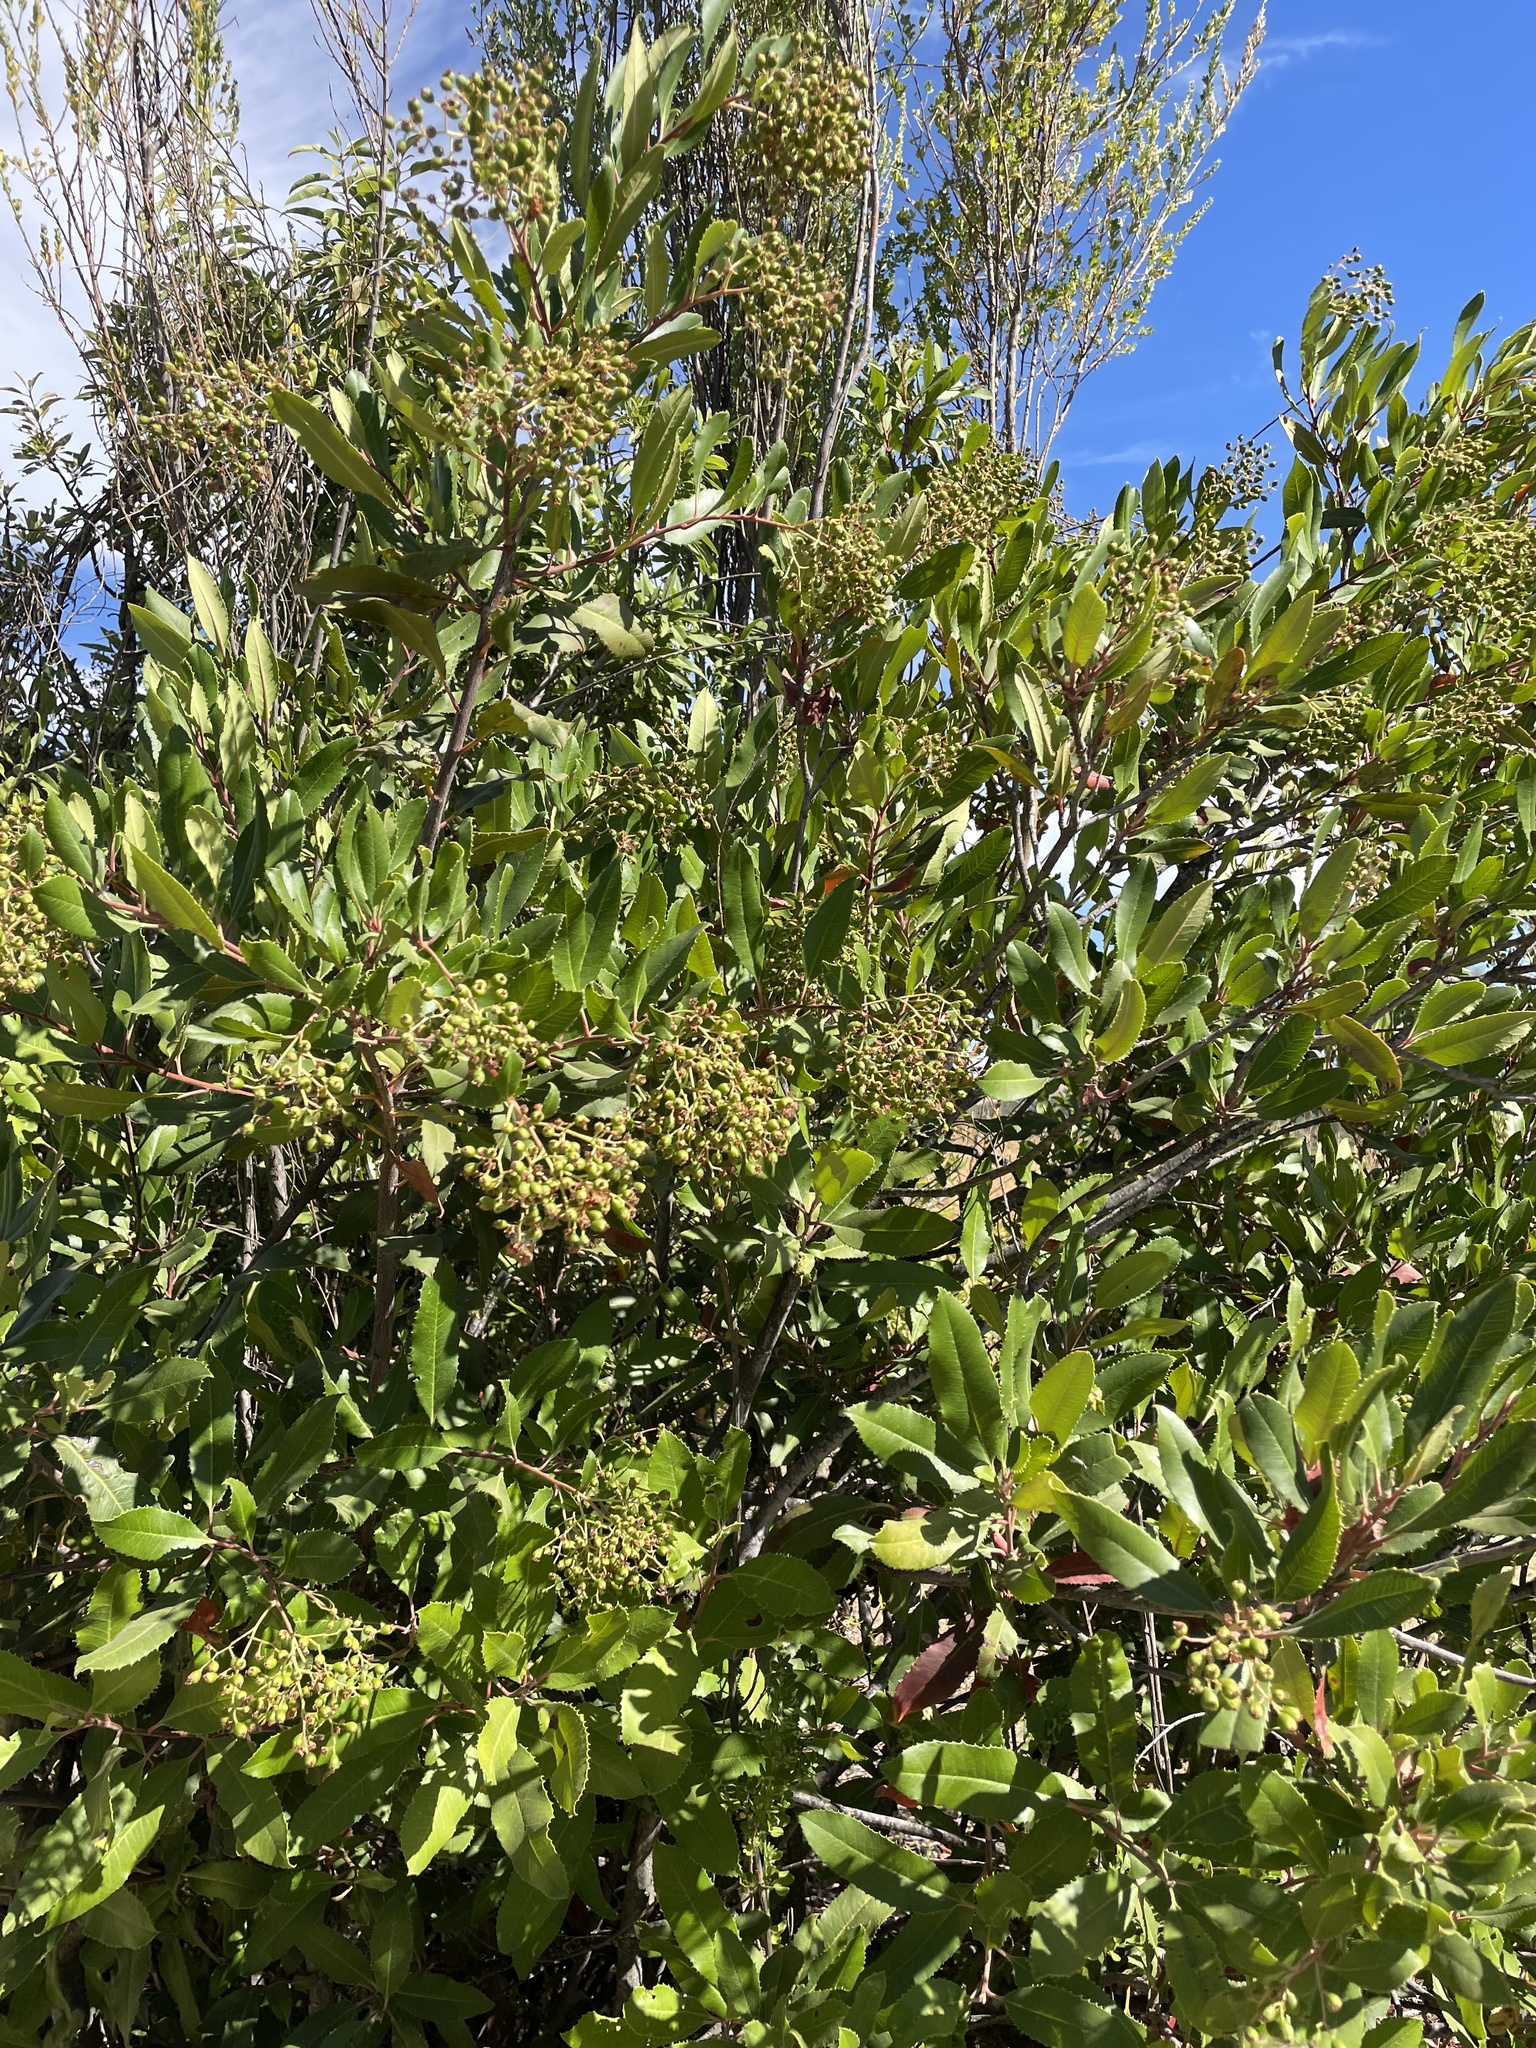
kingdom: Plantae
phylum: Tracheophyta
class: Magnoliopsida
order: Rosales
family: Rosaceae
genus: Heteromeles
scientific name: Heteromeles arbutifolia
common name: California-holly
